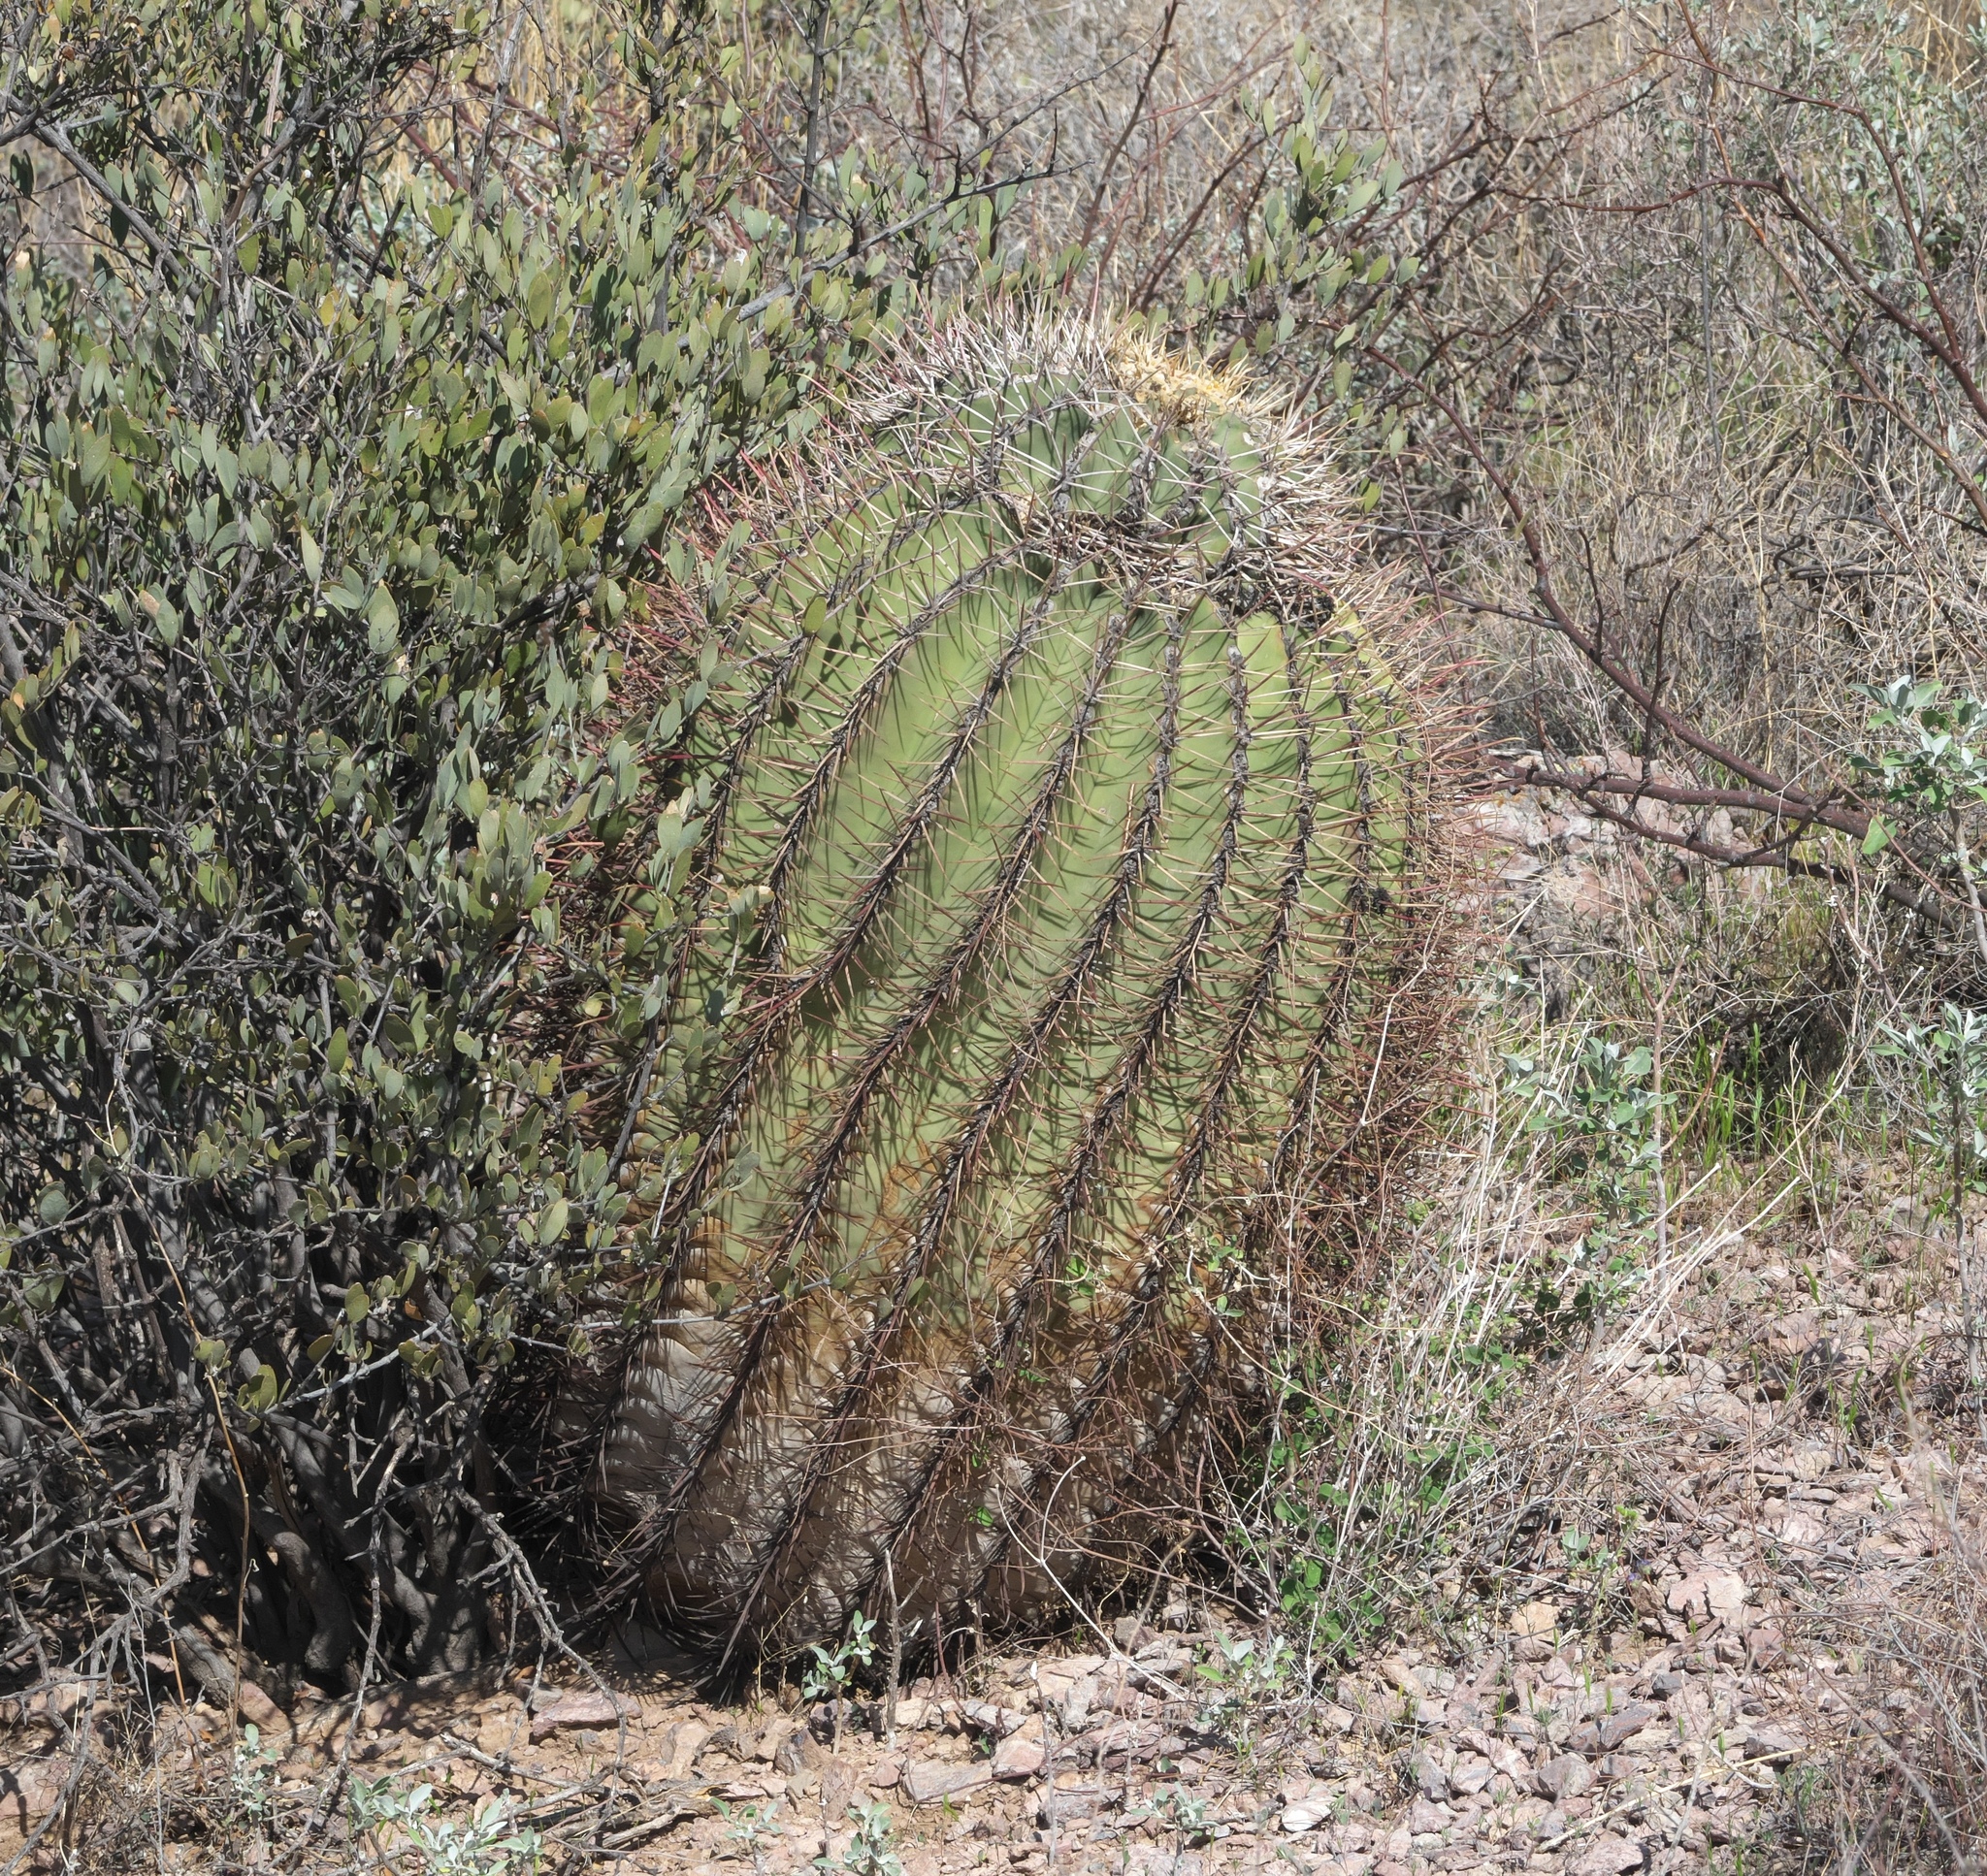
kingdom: Plantae
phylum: Tracheophyta
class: Magnoliopsida
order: Caryophyllales
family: Cactaceae
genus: Ferocactus
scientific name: Ferocactus emoryi
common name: Emory's barrel cactus
